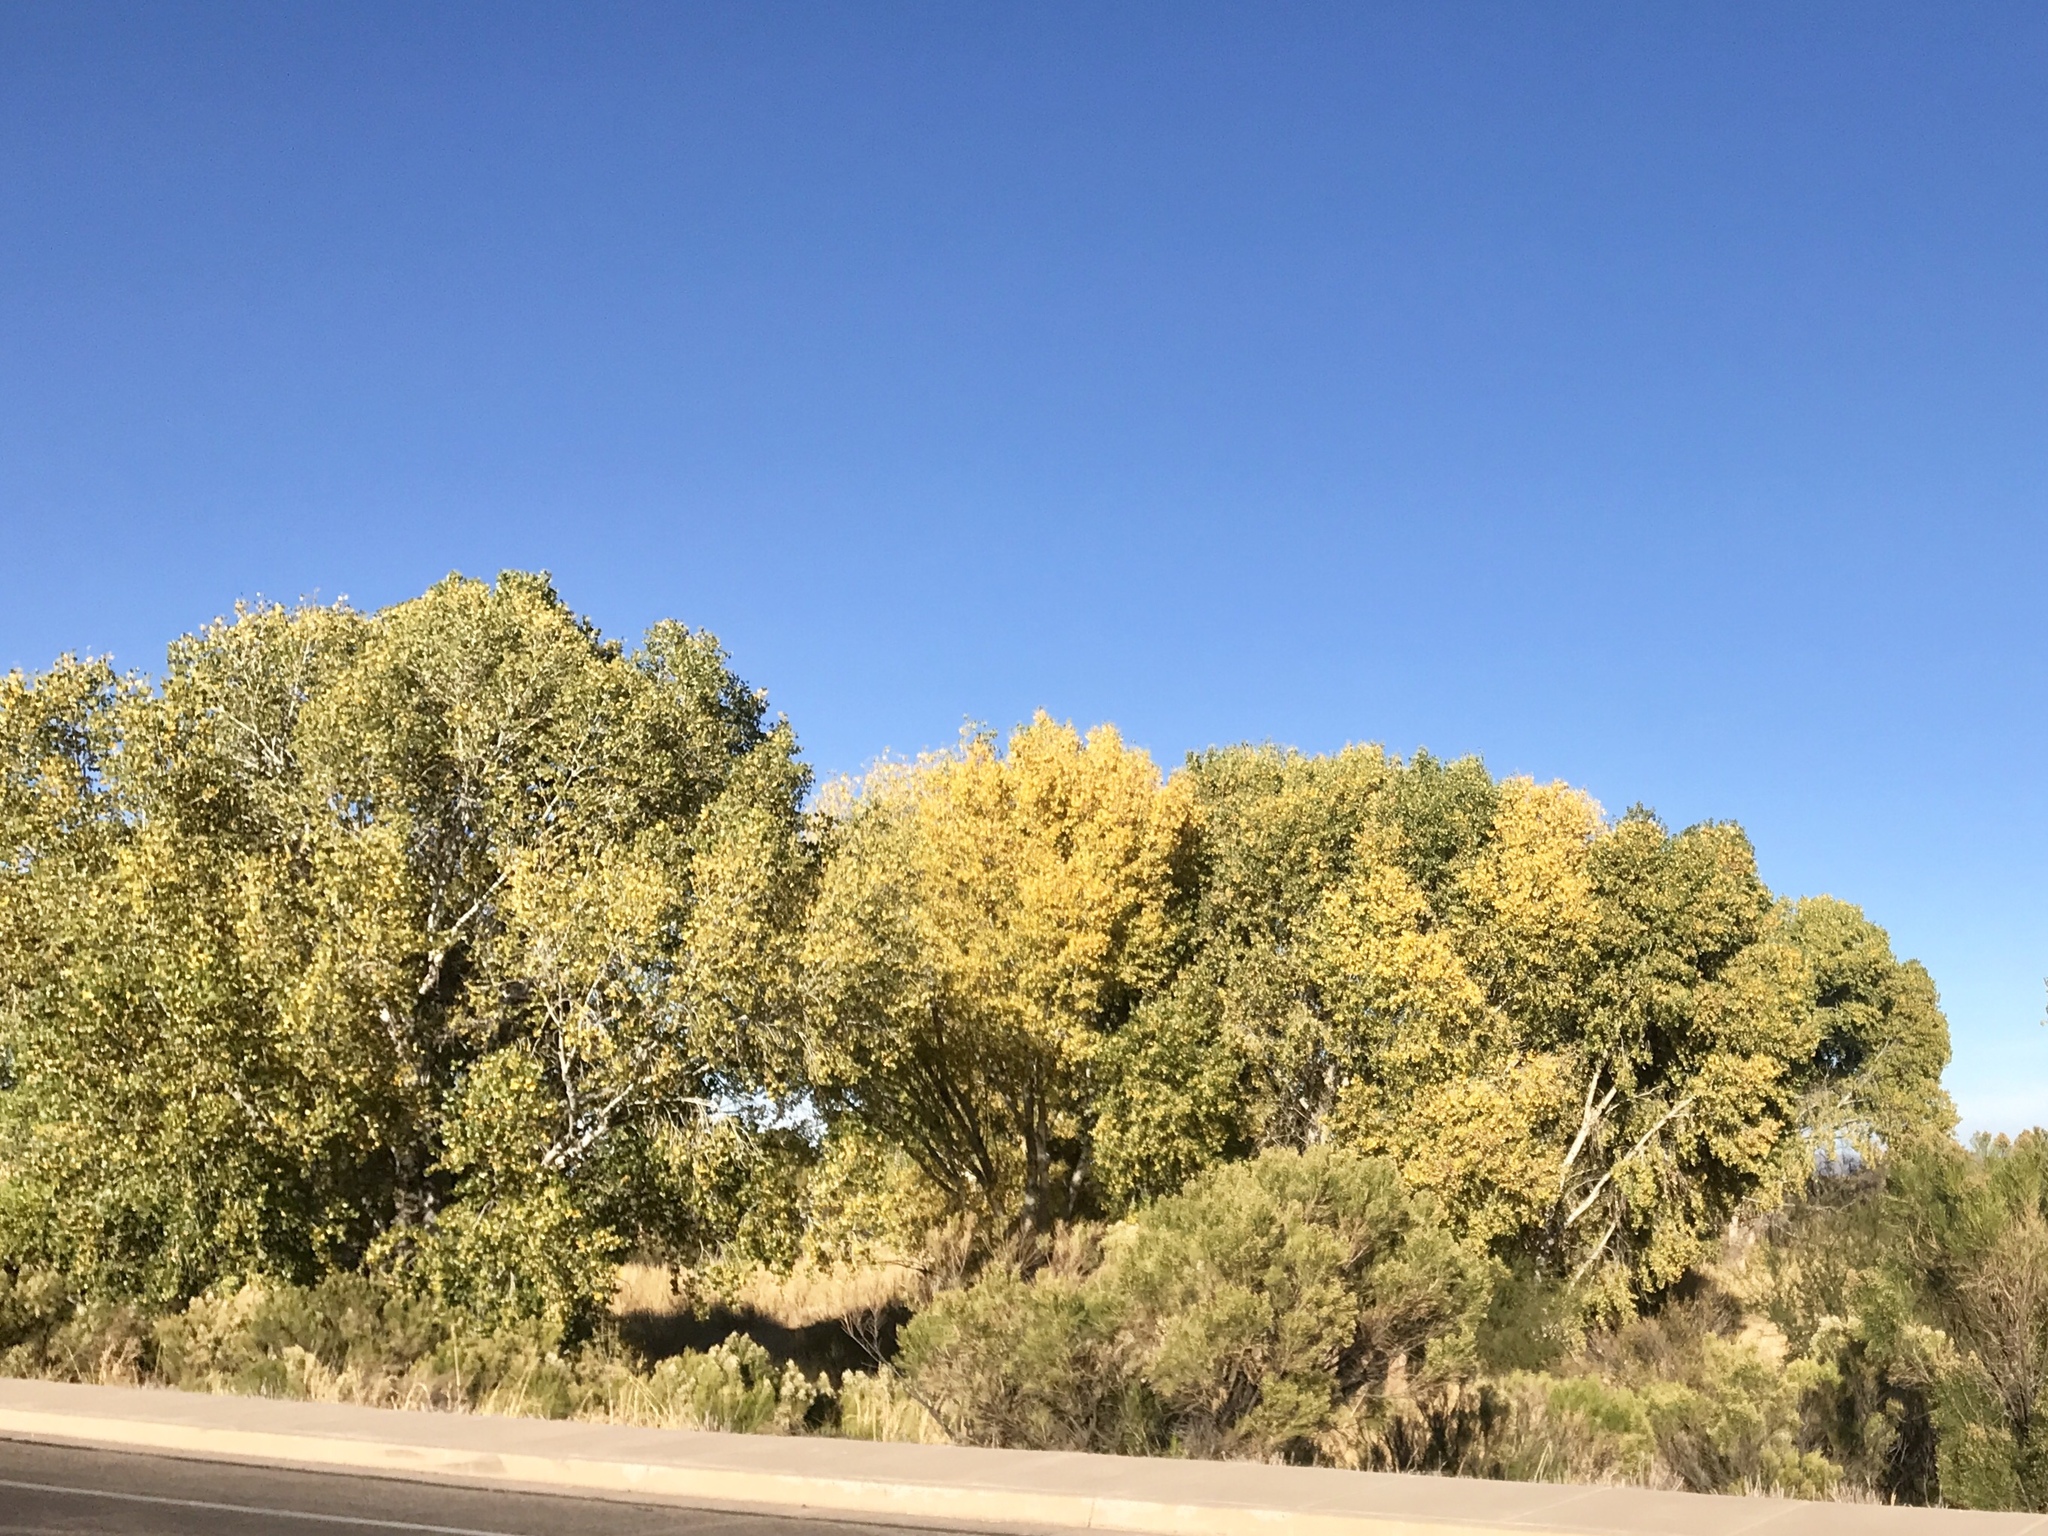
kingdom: Plantae
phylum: Tracheophyta
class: Magnoliopsida
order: Malpighiales
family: Salicaceae
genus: Populus
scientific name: Populus fremontii
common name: Fremont's cottonwood
